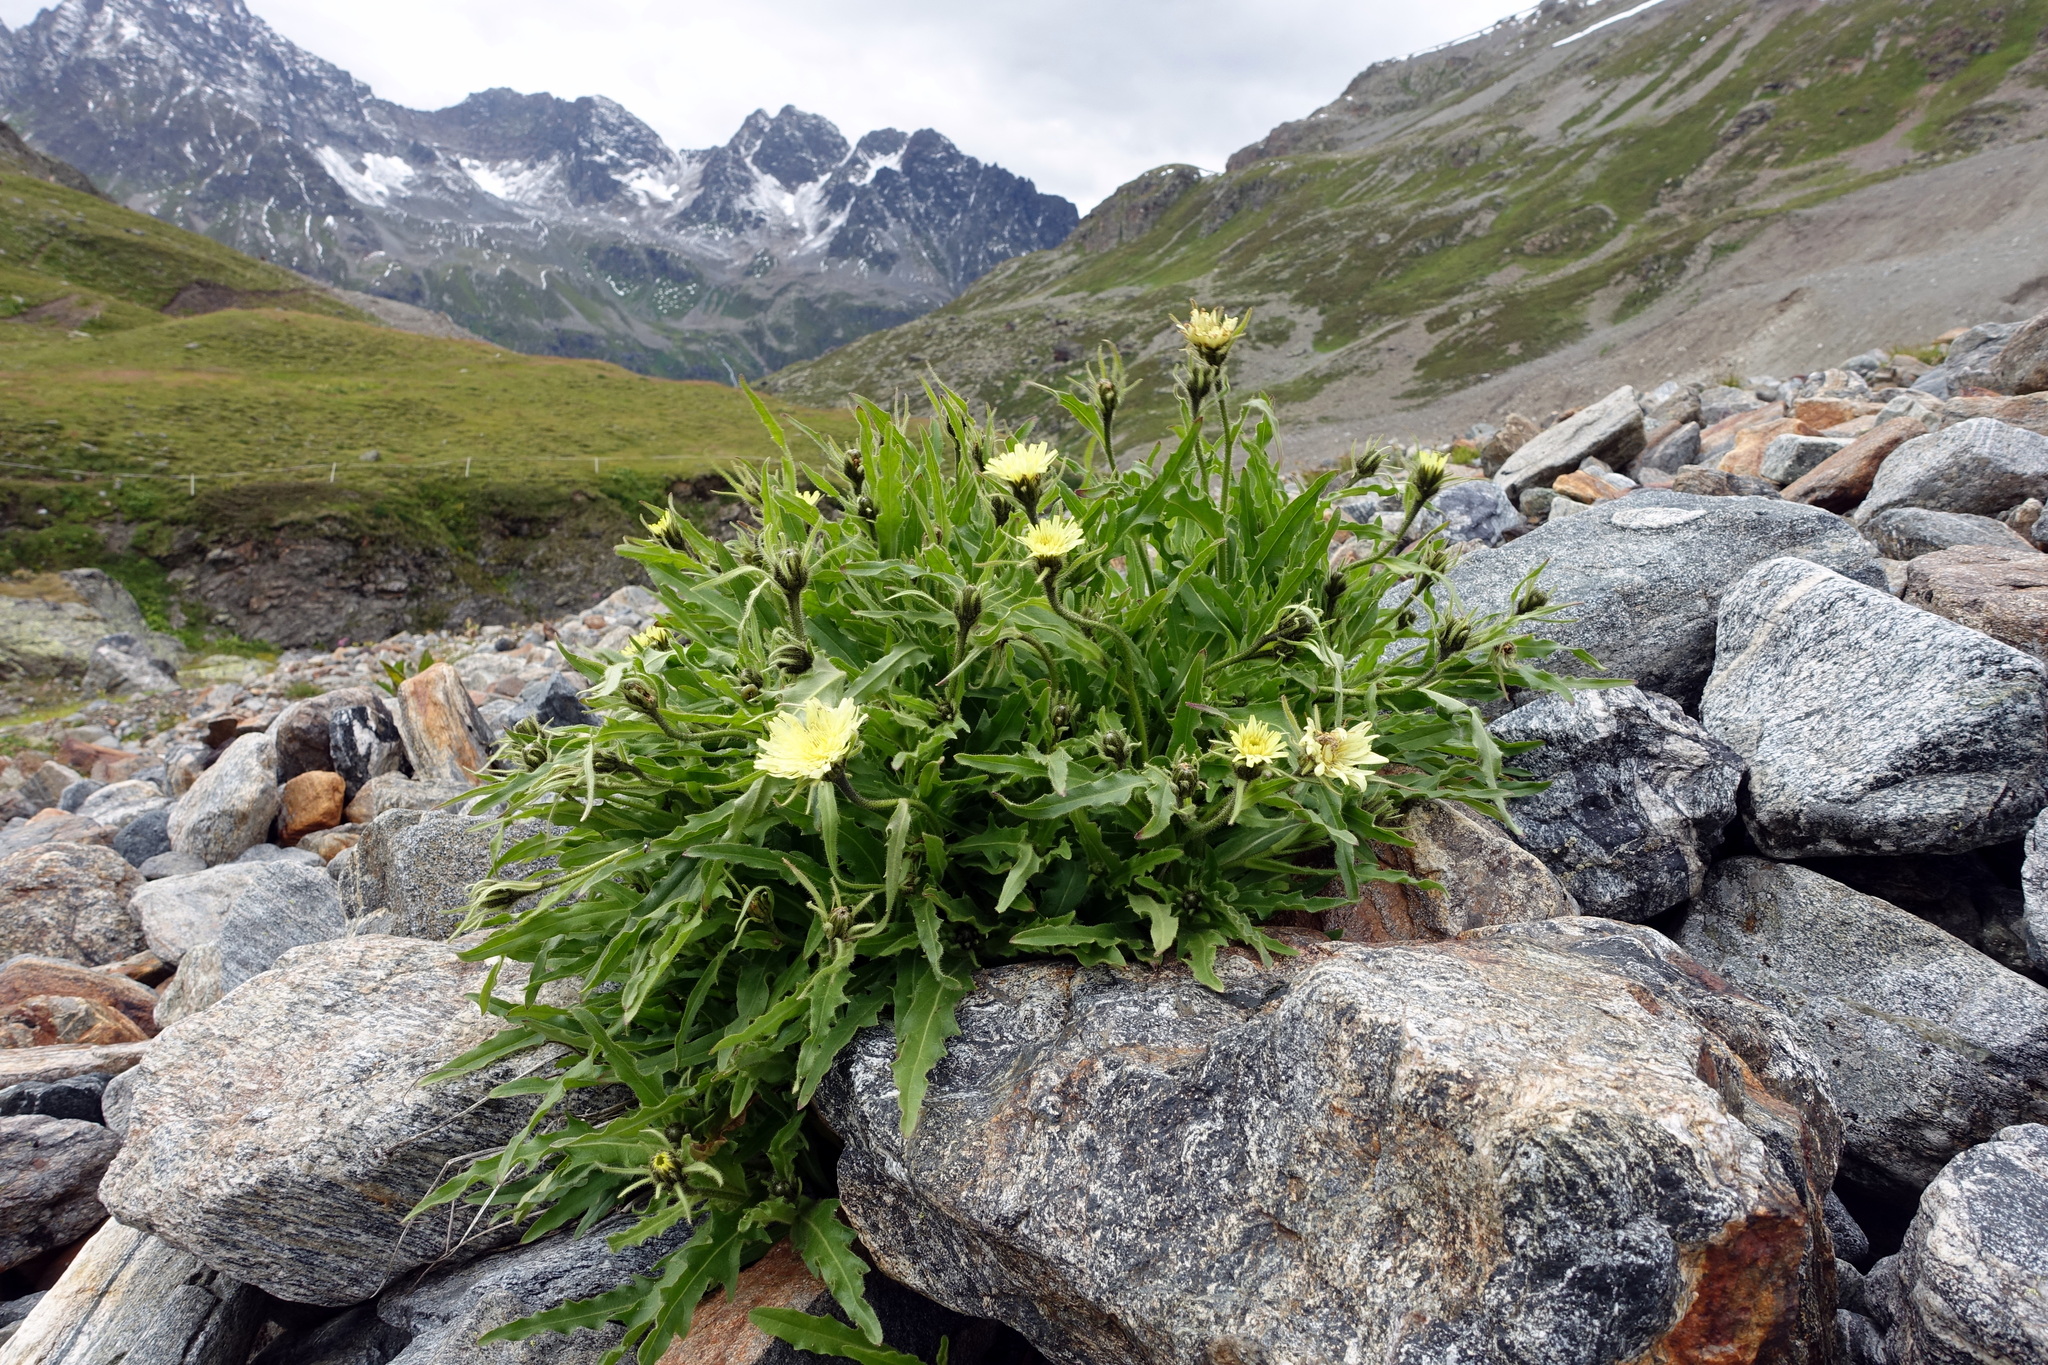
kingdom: Plantae
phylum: Tracheophyta
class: Magnoliopsida
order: Asterales
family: Asteraceae
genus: Schlagintweitia
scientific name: Schlagintweitia intybacea
